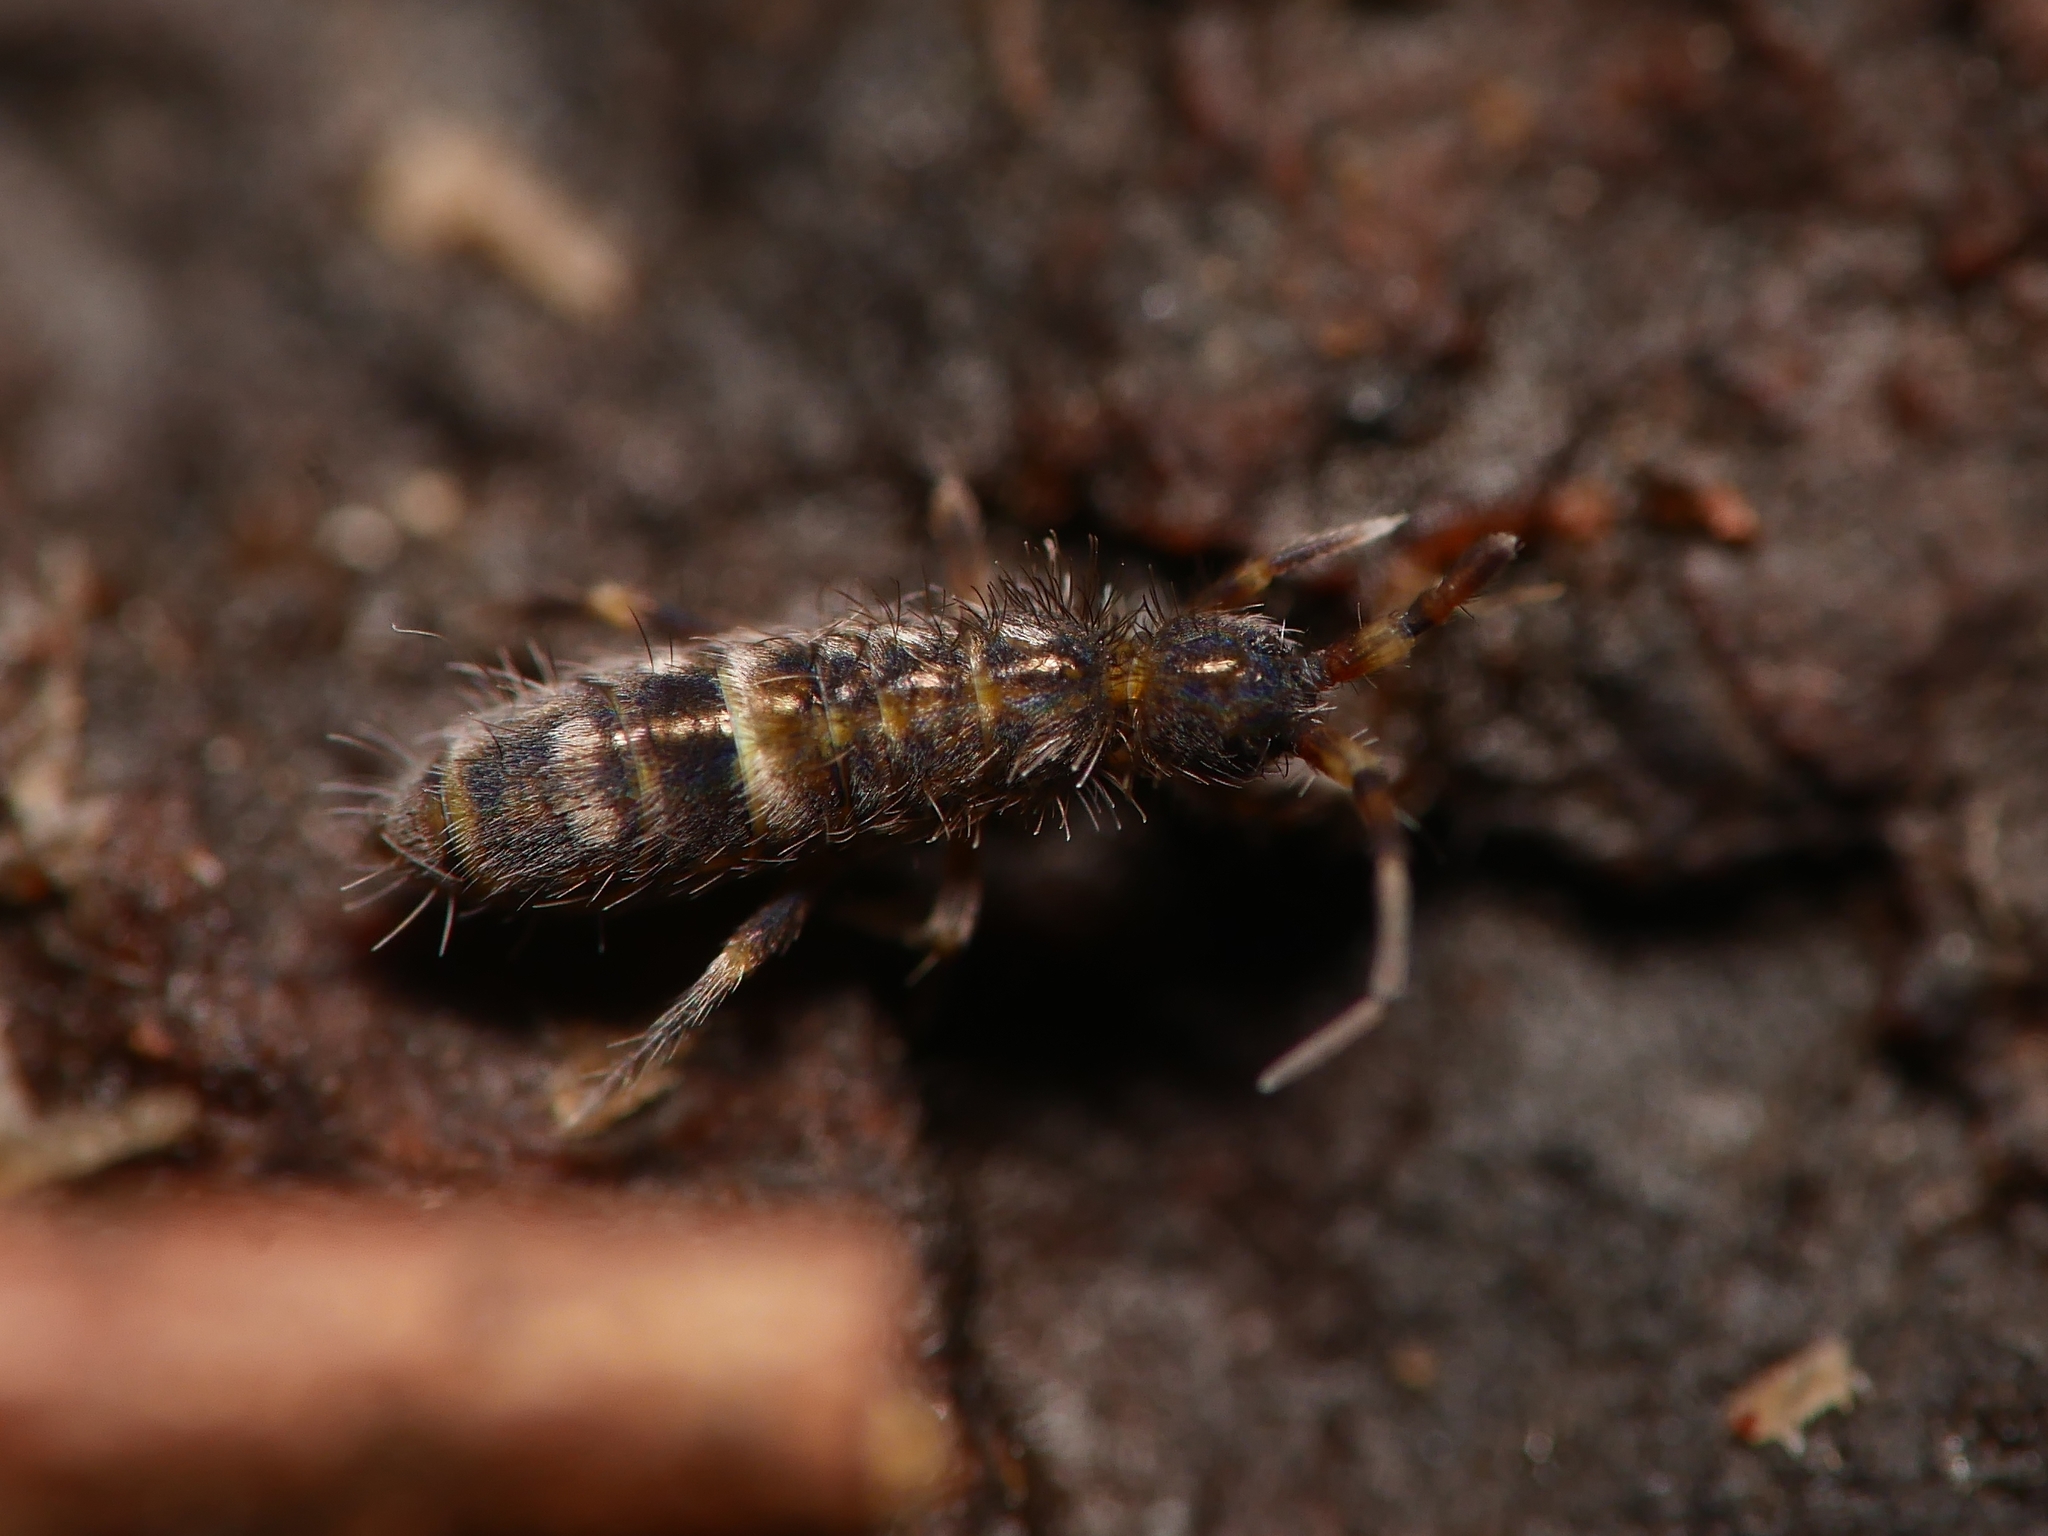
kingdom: Animalia
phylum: Arthropoda
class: Collembola
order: Entomobryomorpha
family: Orchesellidae
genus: Orchesella
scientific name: Orchesella cincta
